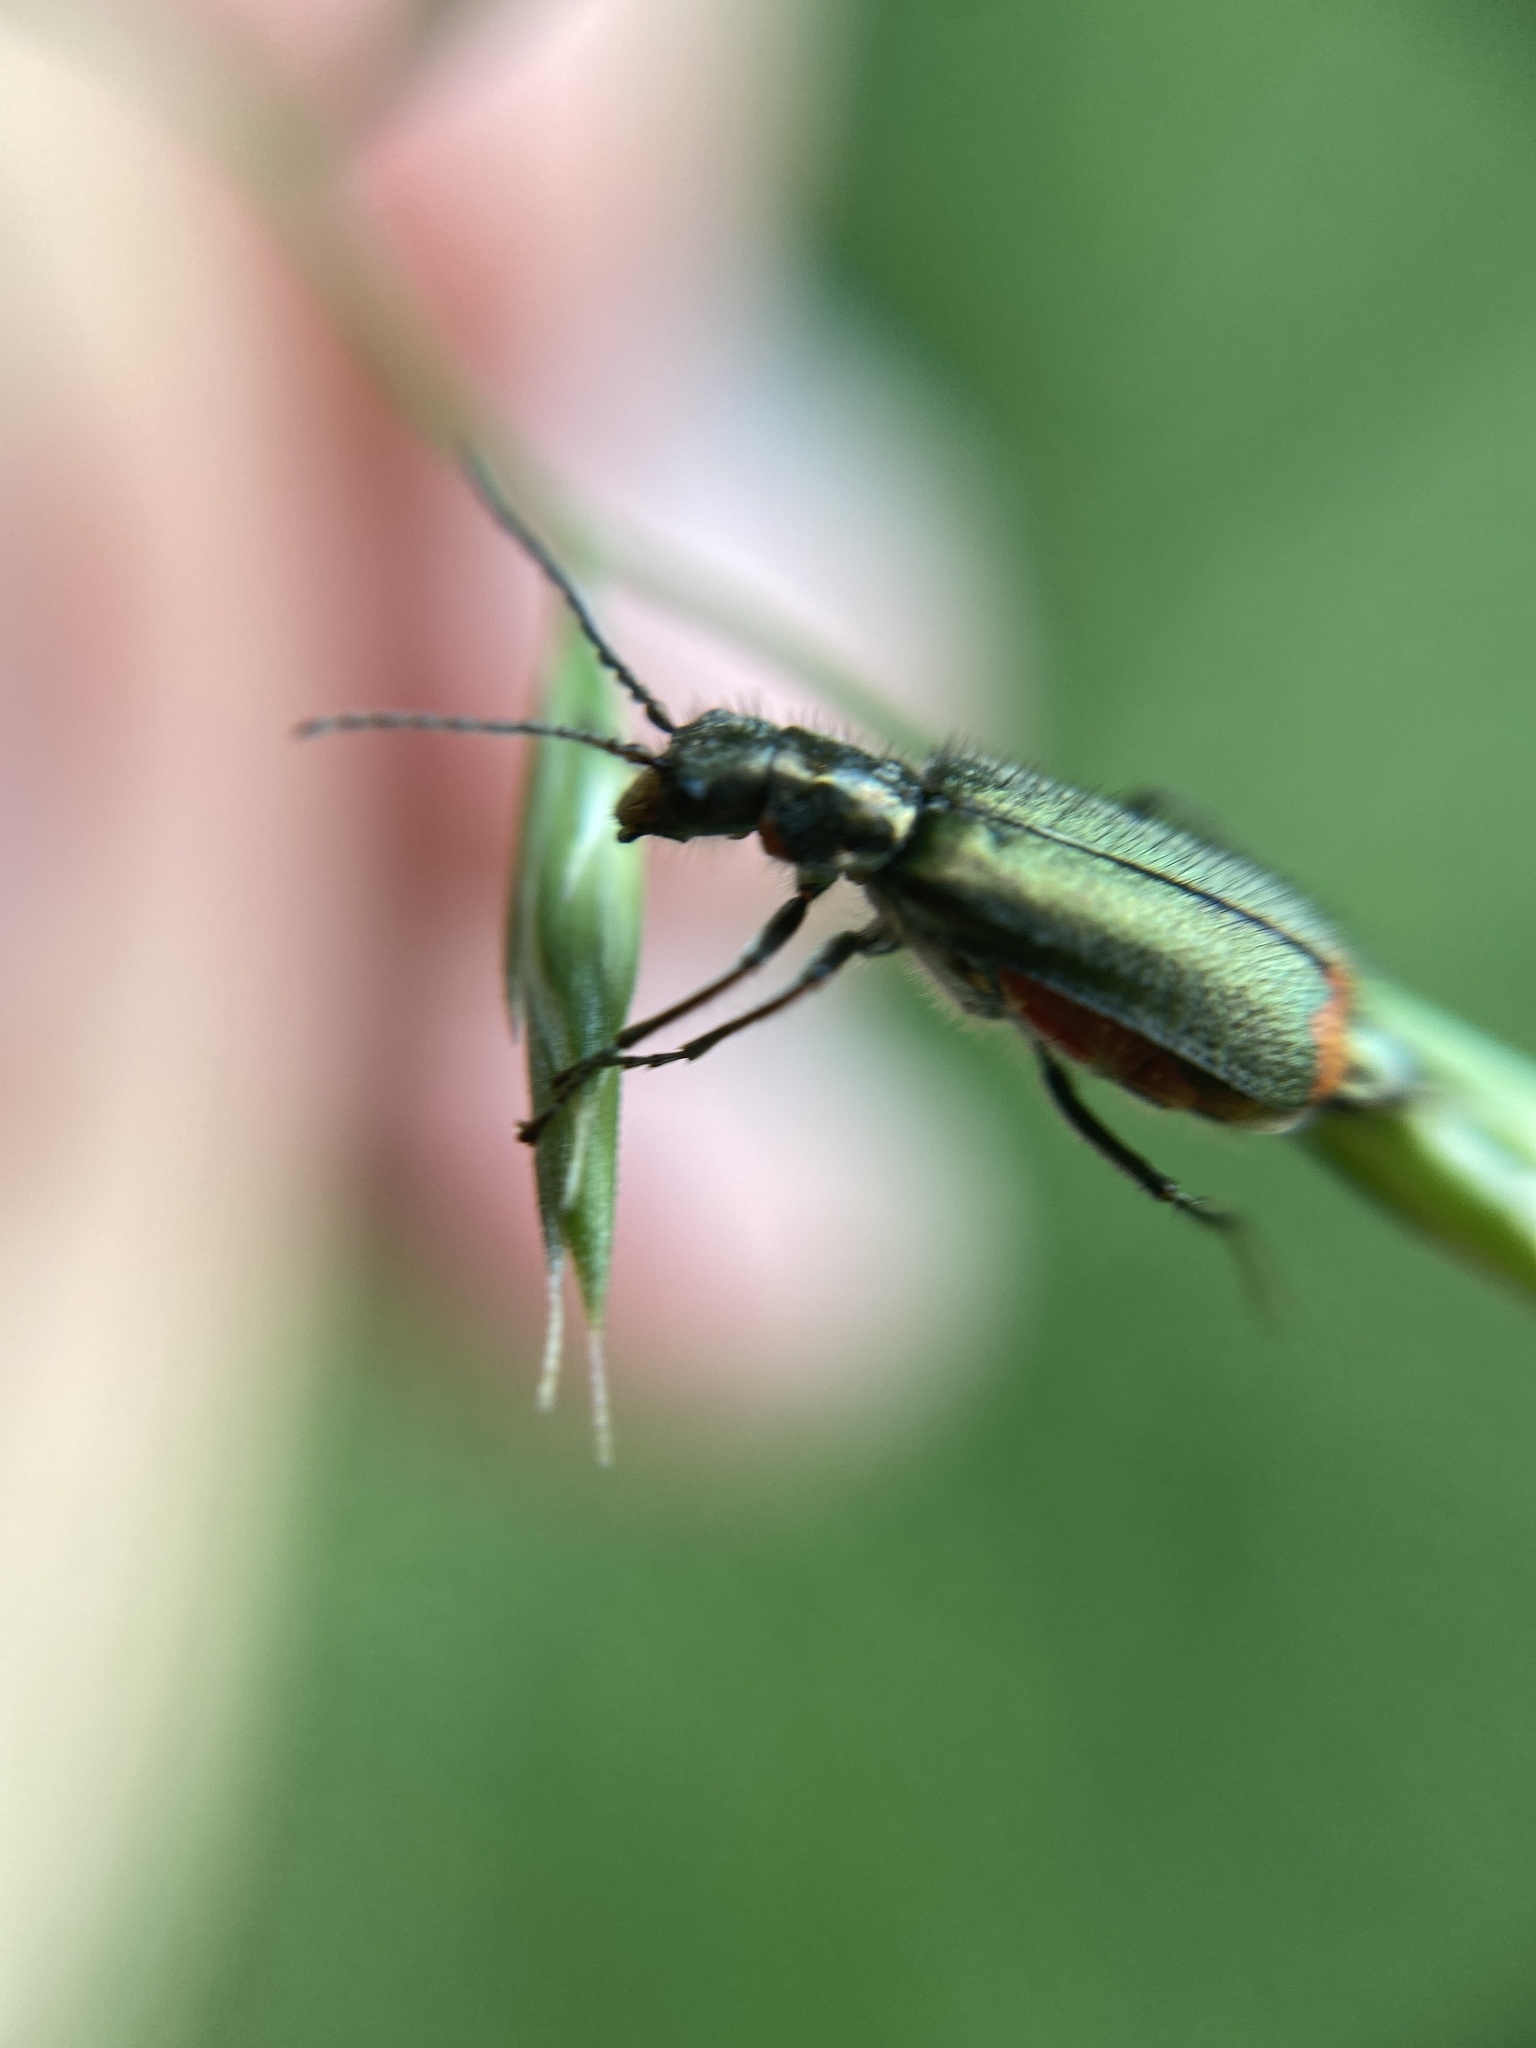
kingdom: Animalia
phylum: Arthropoda
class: Insecta
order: Coleoptera
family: Melyridae
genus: Malachius
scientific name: Malachius bipustulatus
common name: Malachite beetle
